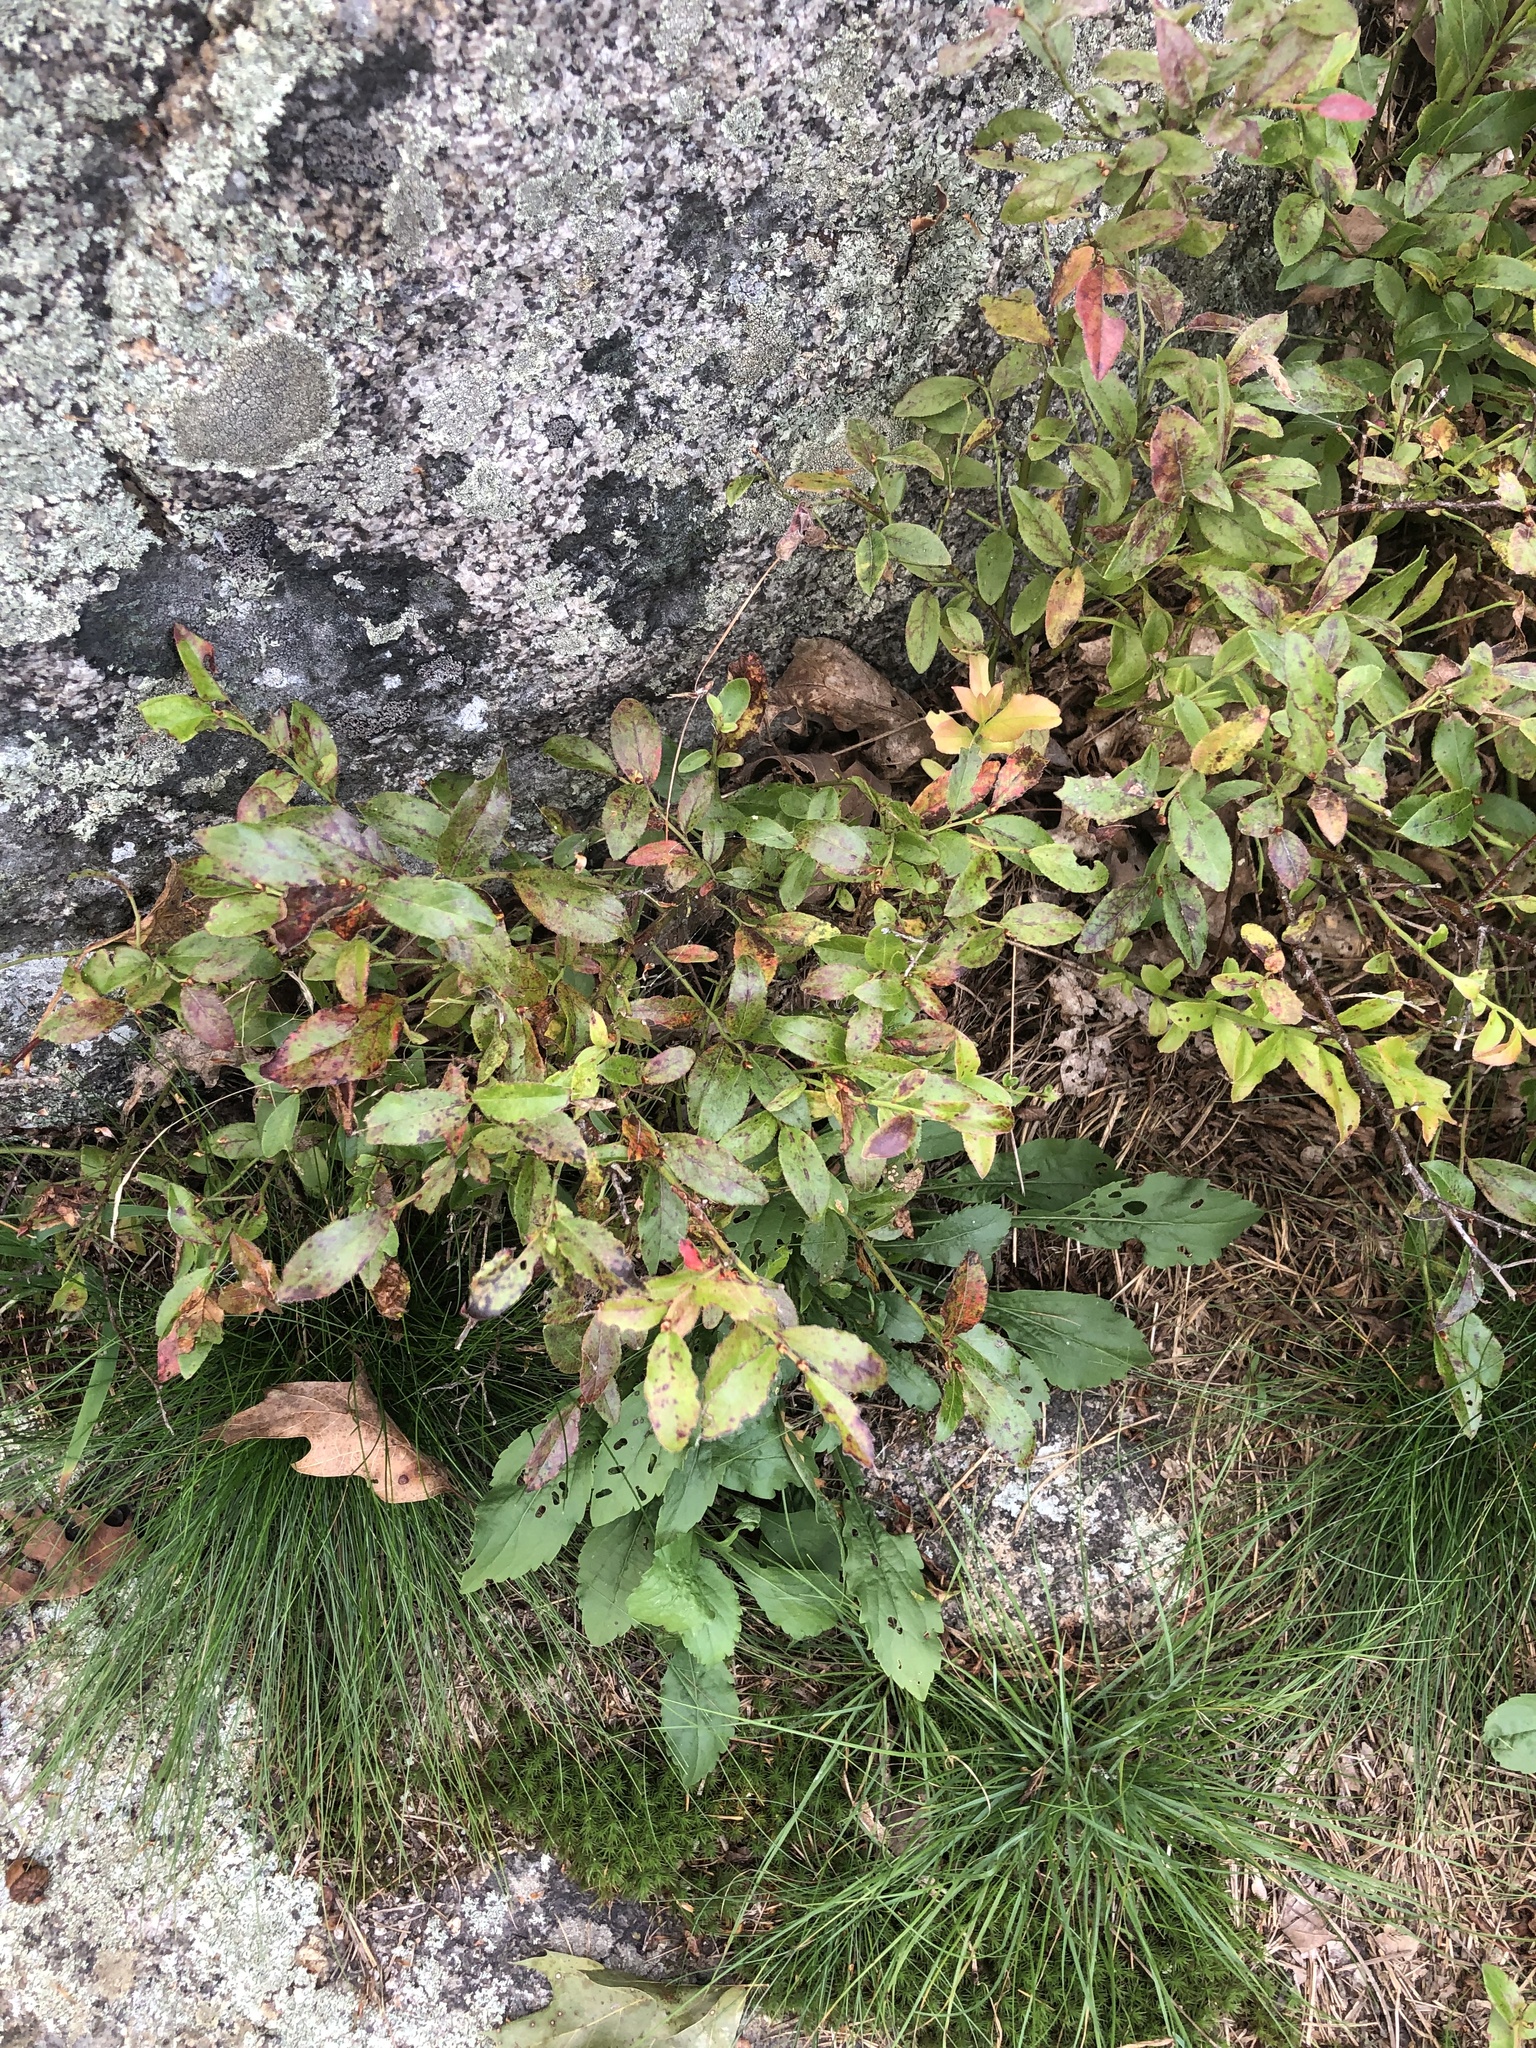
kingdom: Plantae
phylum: Tracheophyta
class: Magnoliopsida
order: Ericales
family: Ericaceae
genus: Vaccinium
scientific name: Vaccinium angustifolium
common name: Early lowbush blueberry
